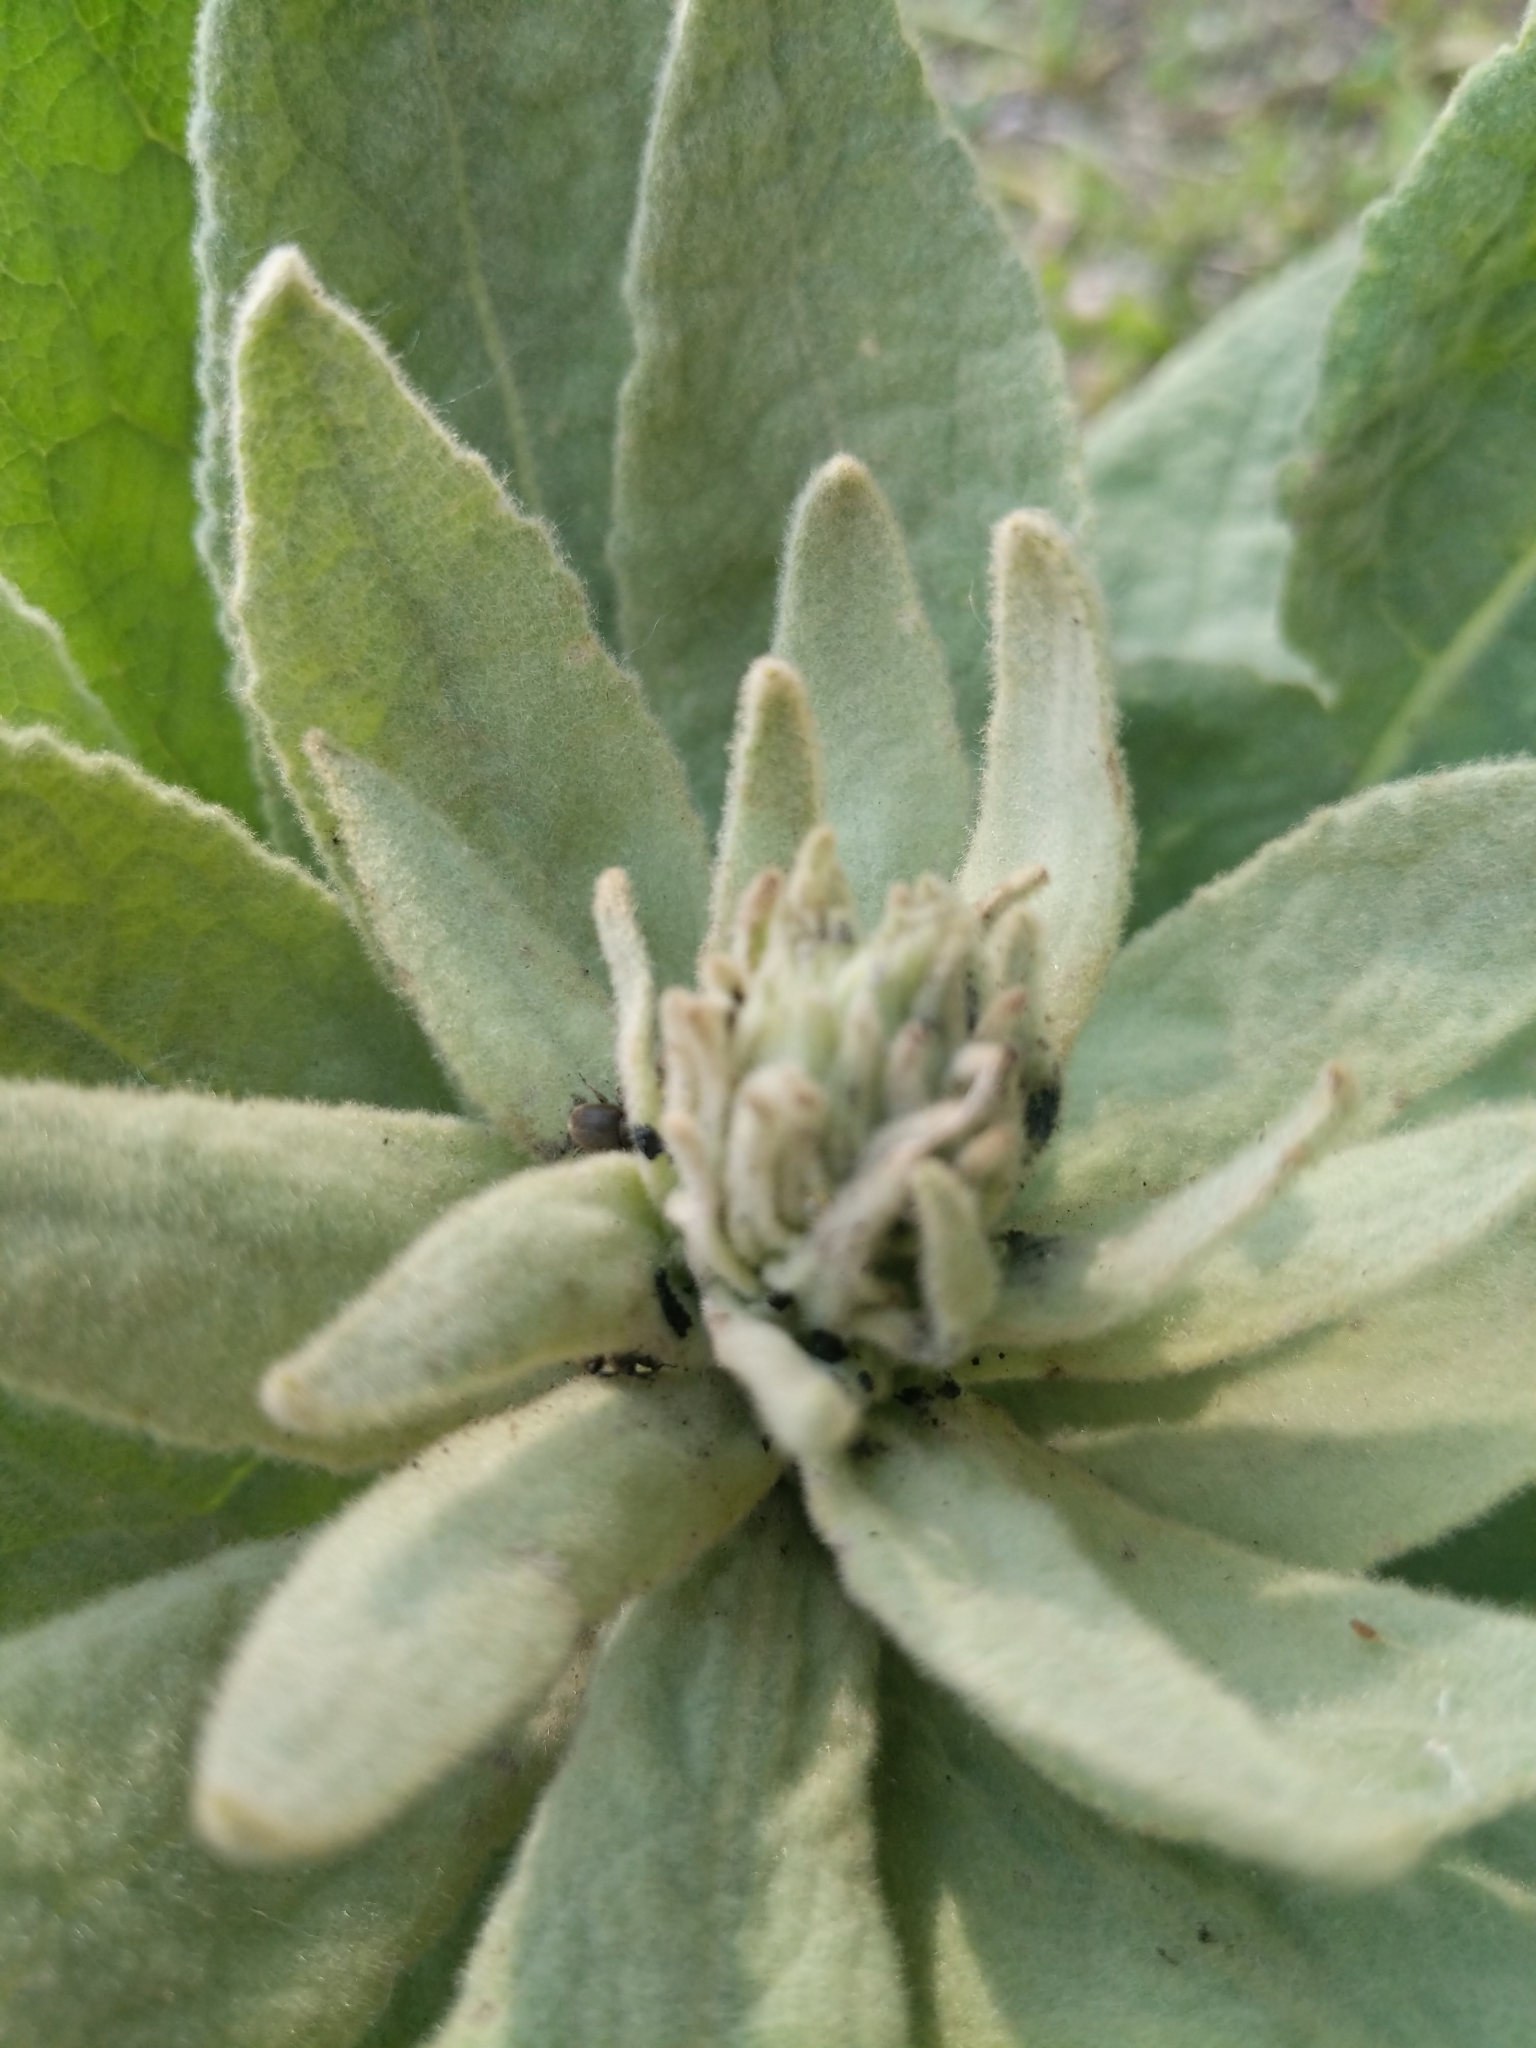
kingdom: Plantae
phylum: Tracheophyta
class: Magnoliopsida
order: Lamiales
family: Scrophulariaceae
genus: Verbascum
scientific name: Verbascum thapsus
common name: Common mullein
